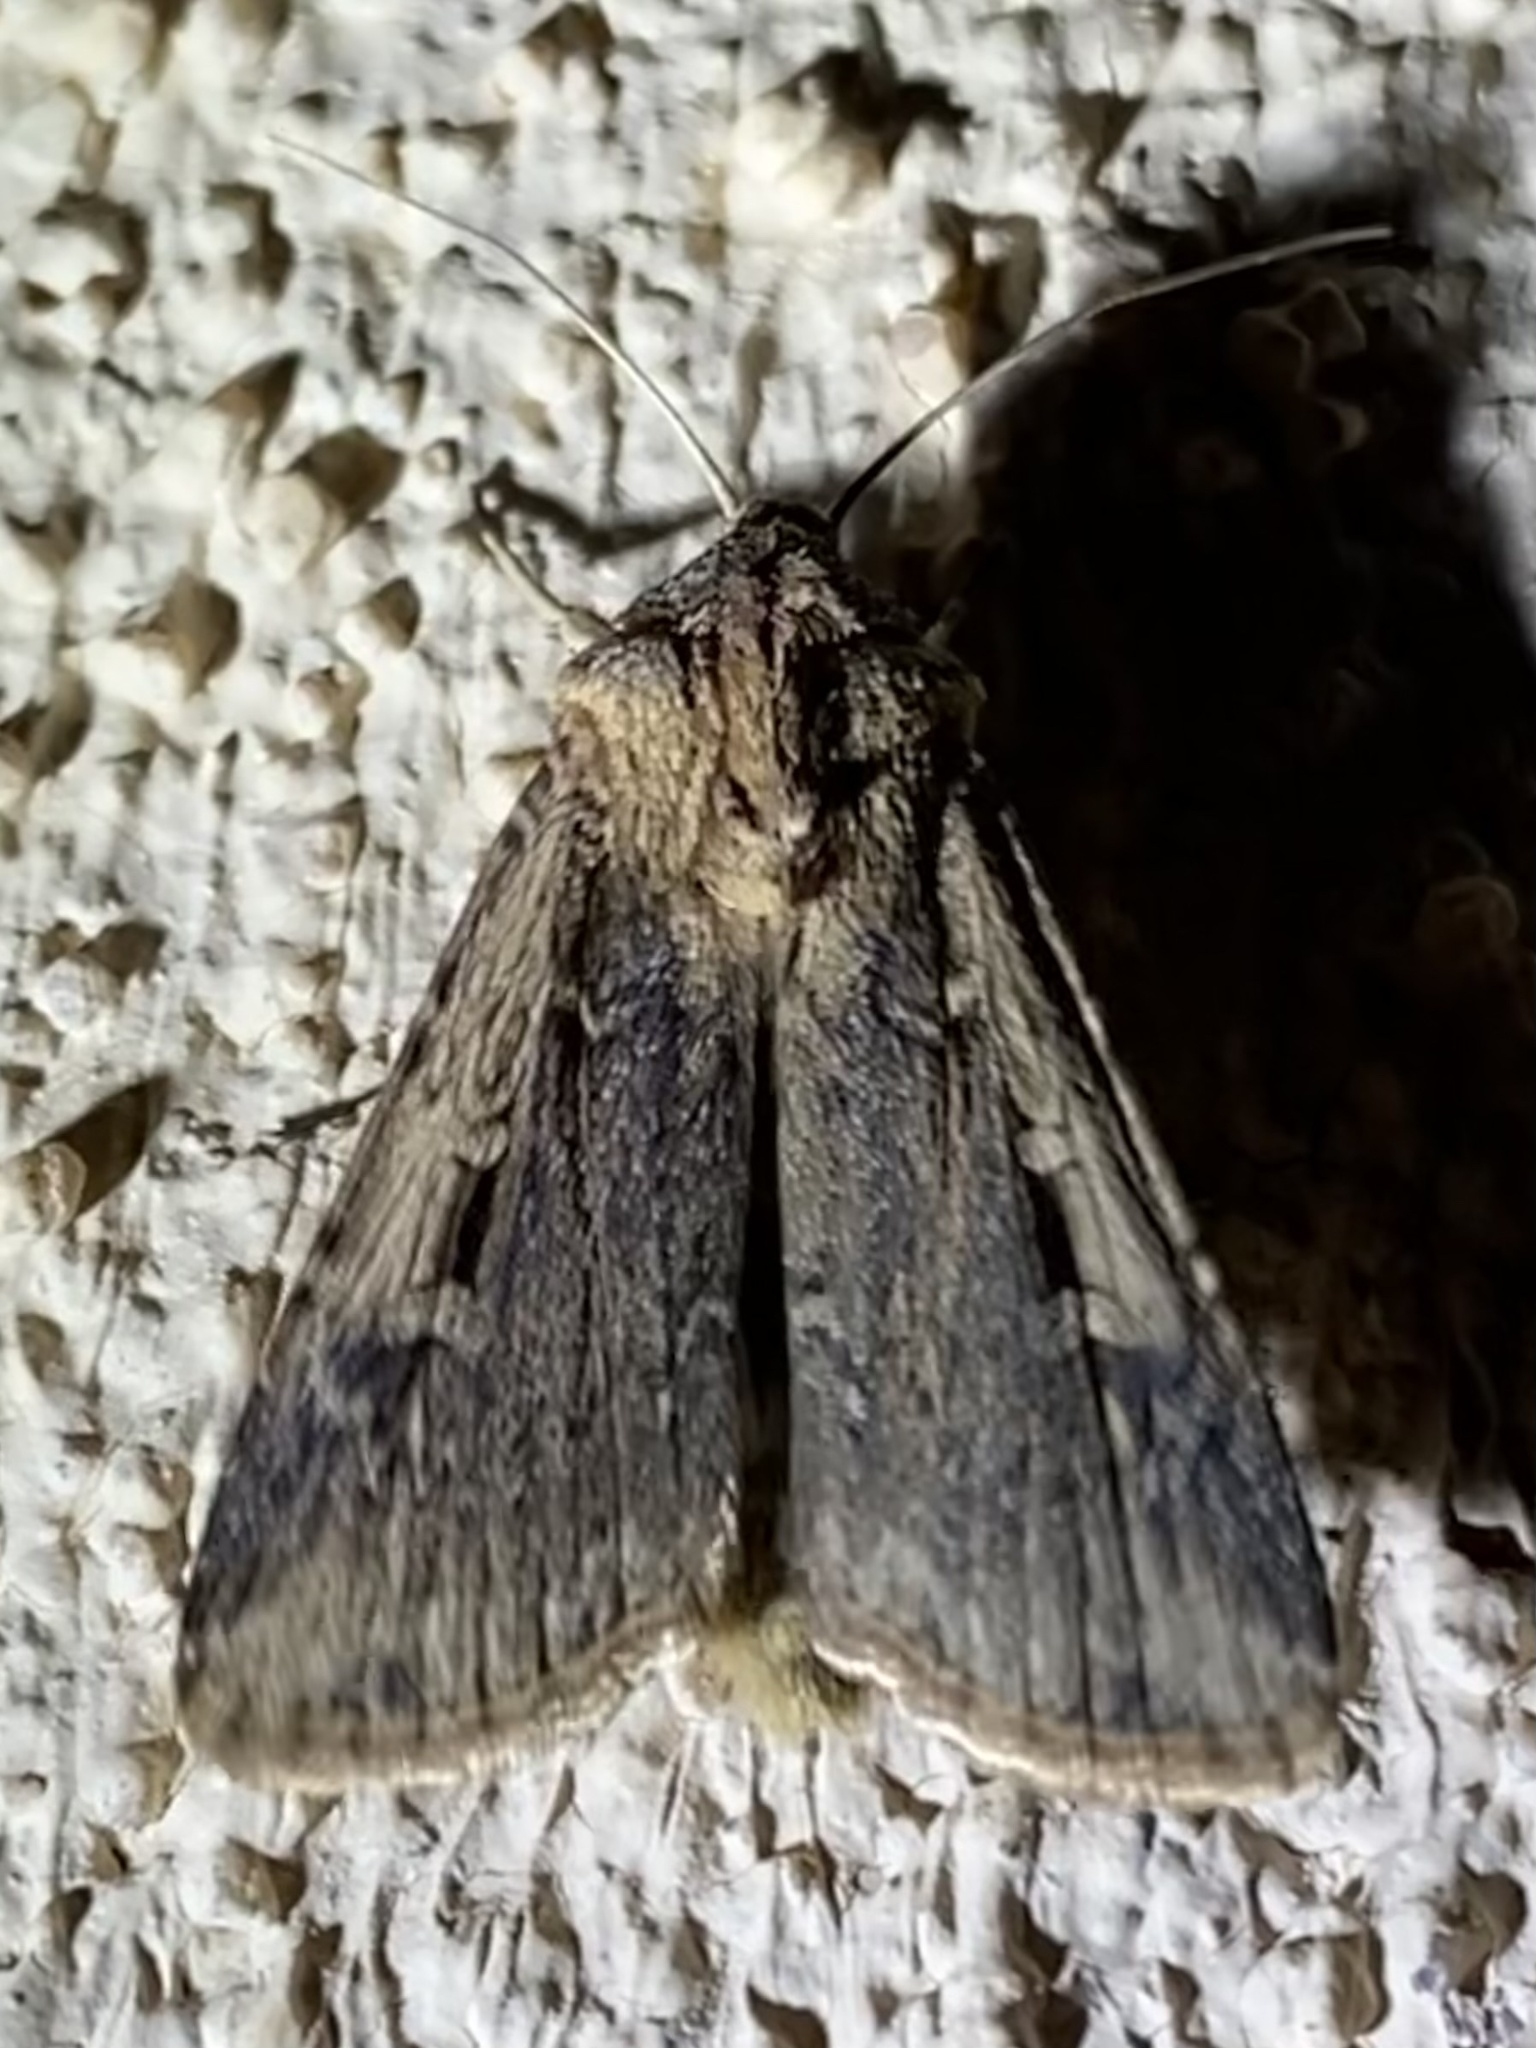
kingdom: Animalia
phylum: Arthropoda
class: Insecta
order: Lepidoptera
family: Noctuidae
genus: Feltia
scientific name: Feltia subterranea
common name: Granulate cutworm
